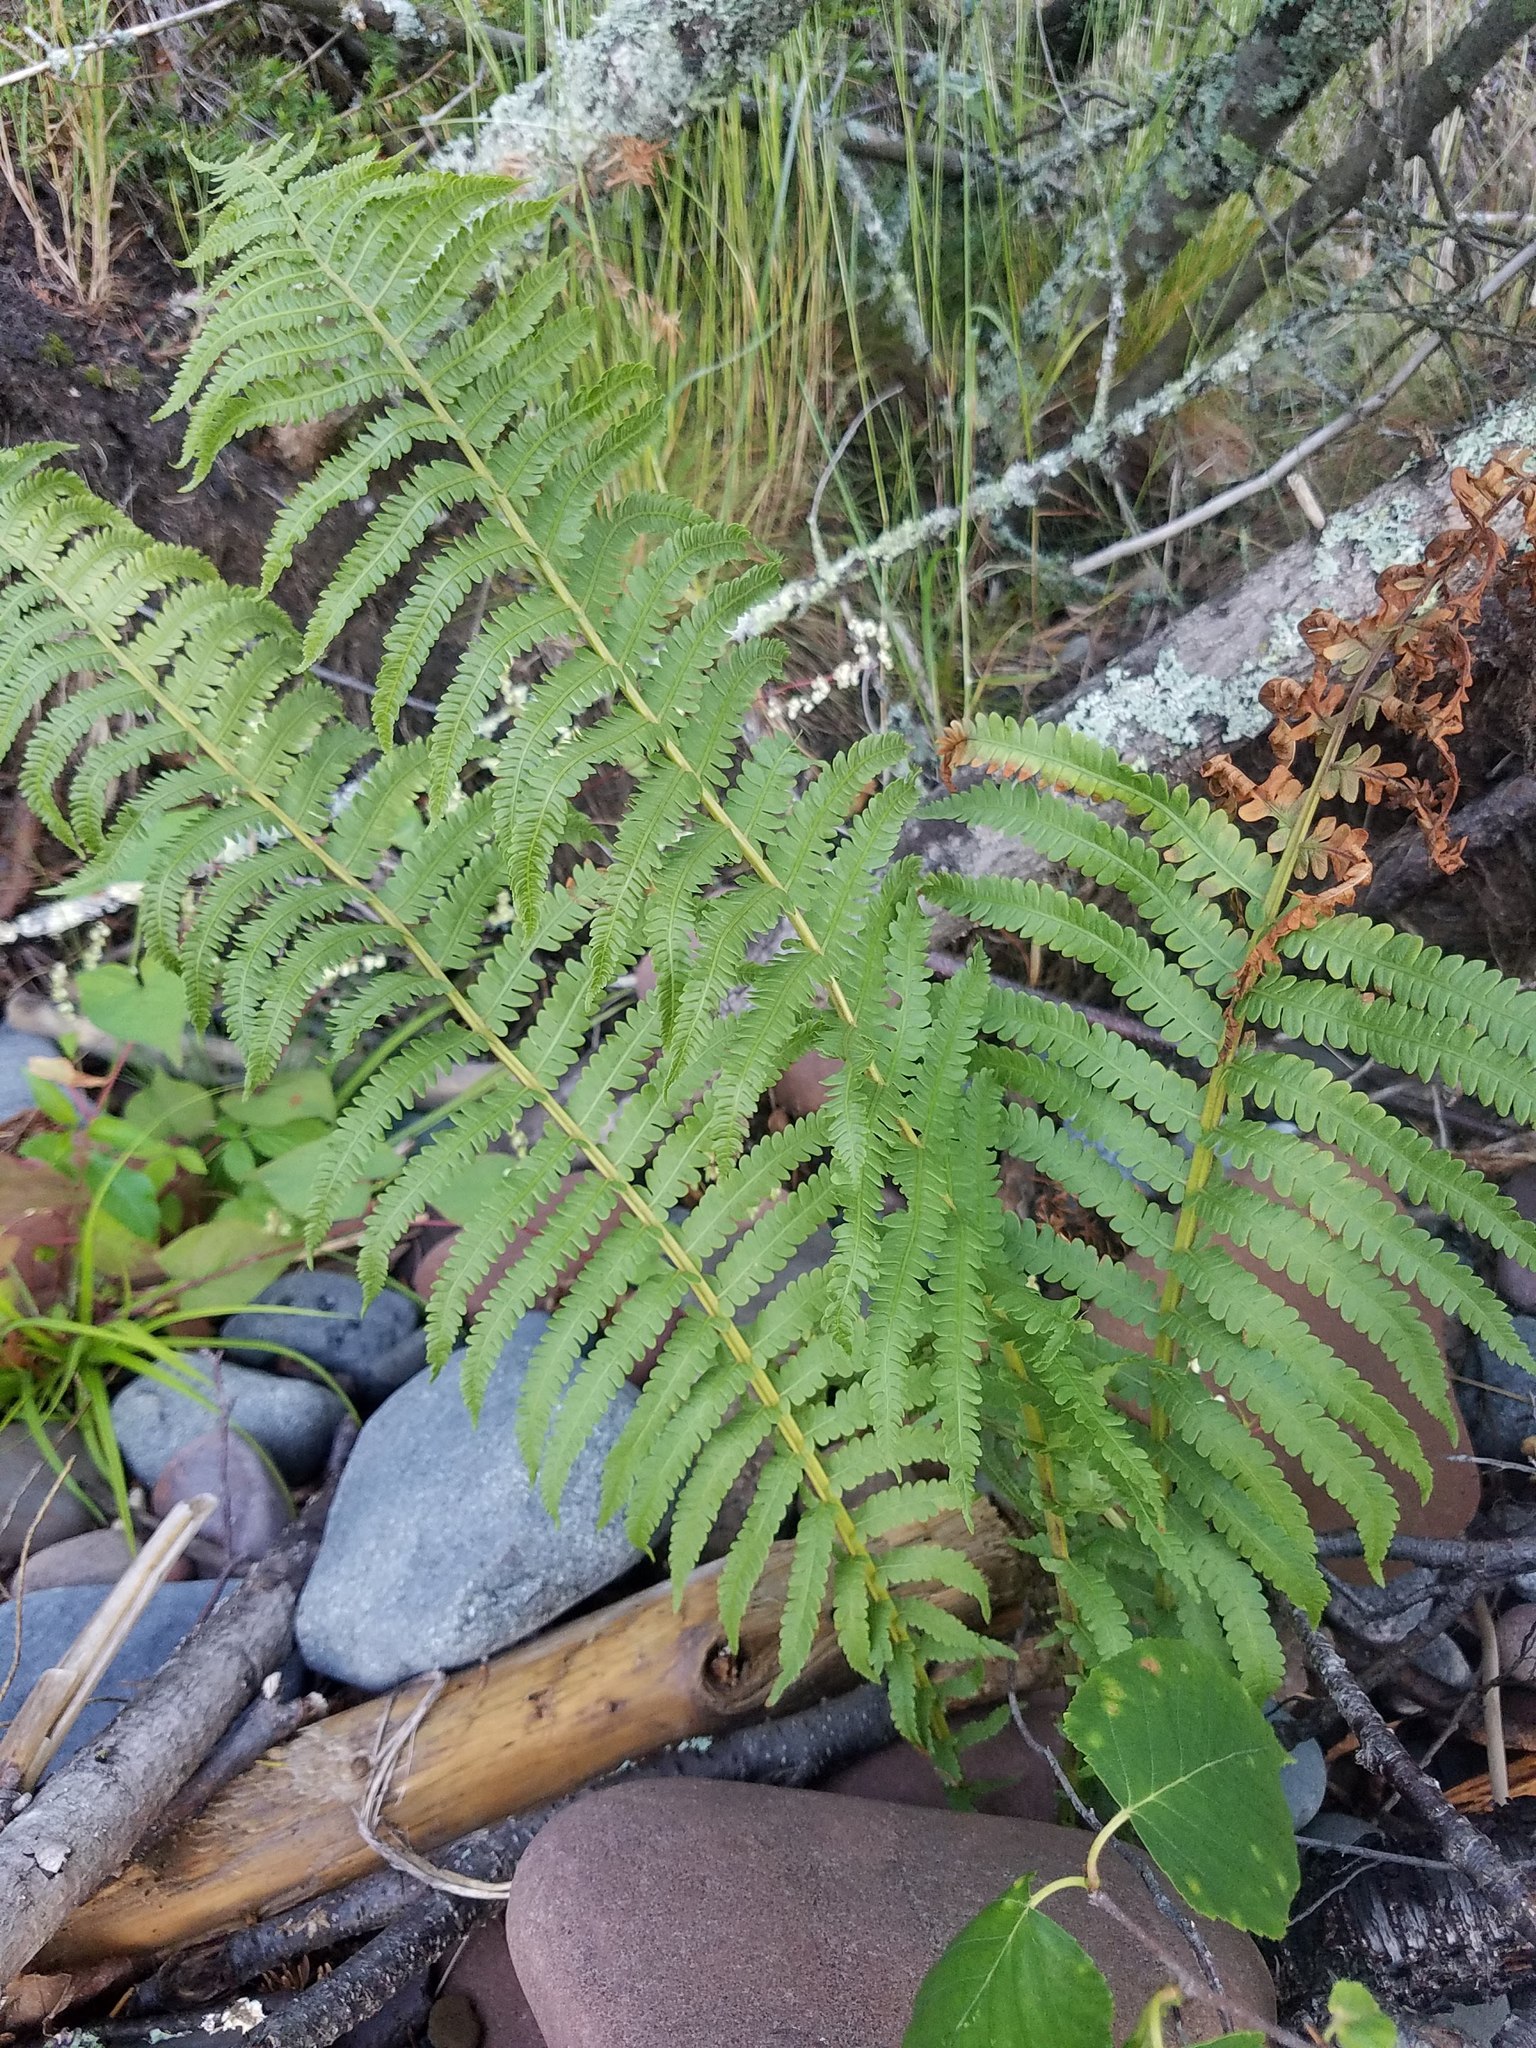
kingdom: Plantae
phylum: Tracheophyta
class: Polypodiopsida
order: Polypodiales
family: Onocleaceae
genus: Matteuccia
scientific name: Matteuccia struthiopteris
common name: Ostrich fern
